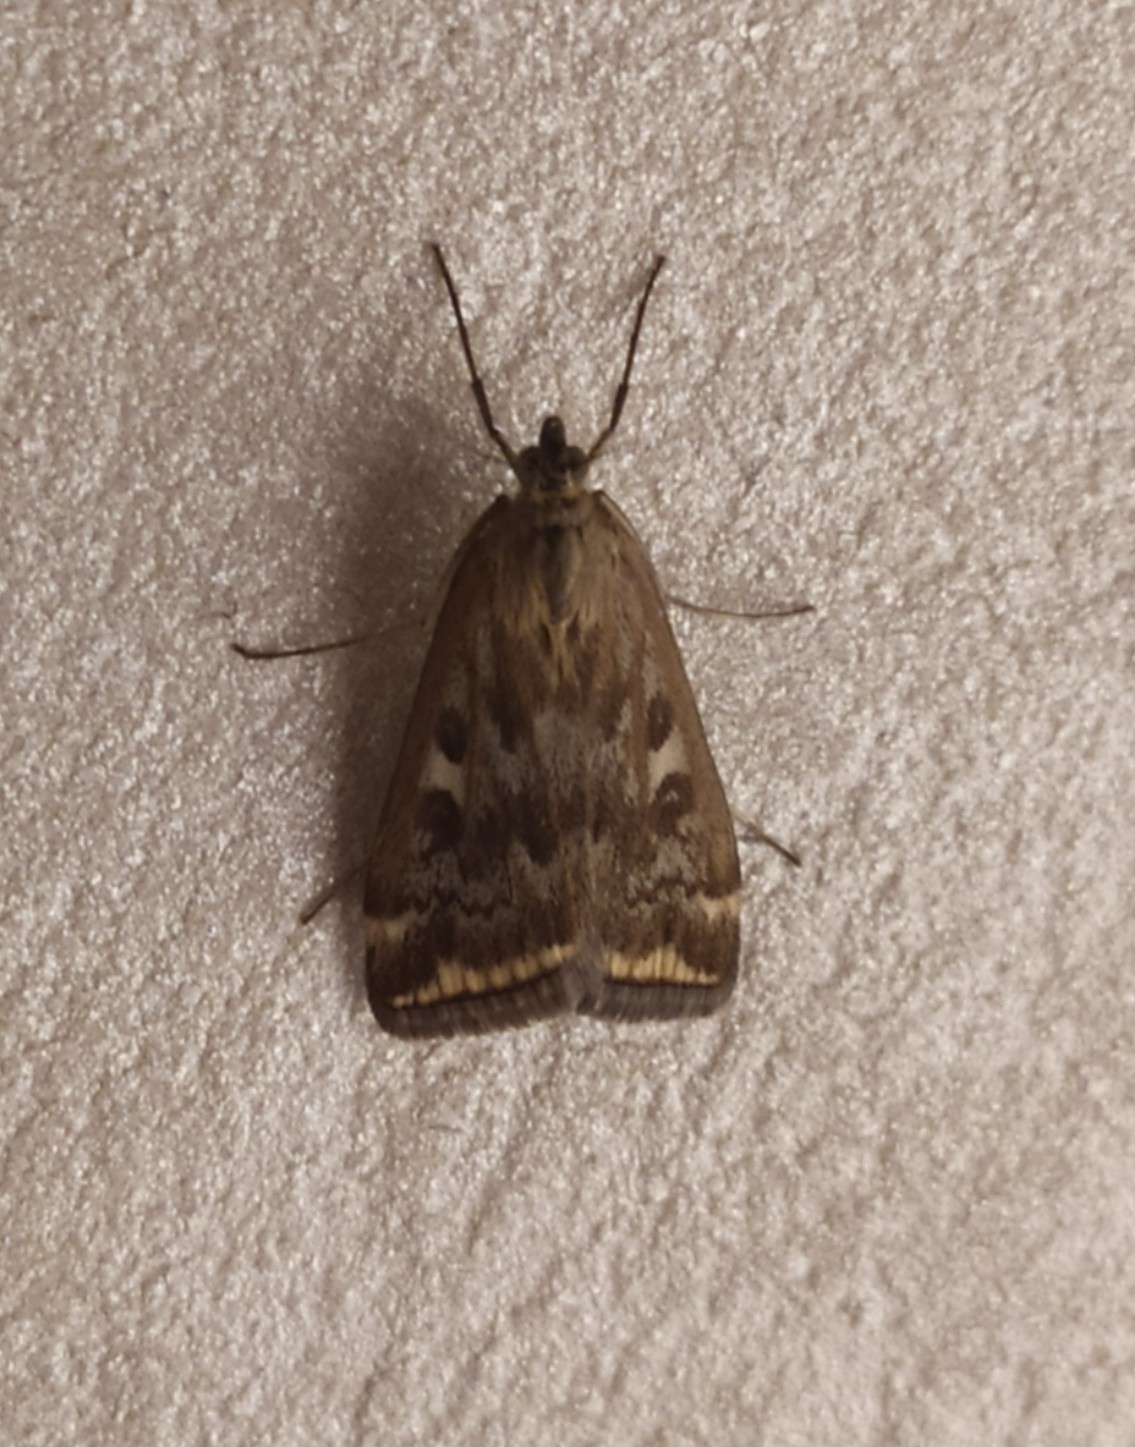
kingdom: Animalia
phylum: Arthropoda
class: Insecta
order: Lepidoptera
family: Crambidae
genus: Loxostege
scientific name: Loxostege sticticalis
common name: Crambid moth
